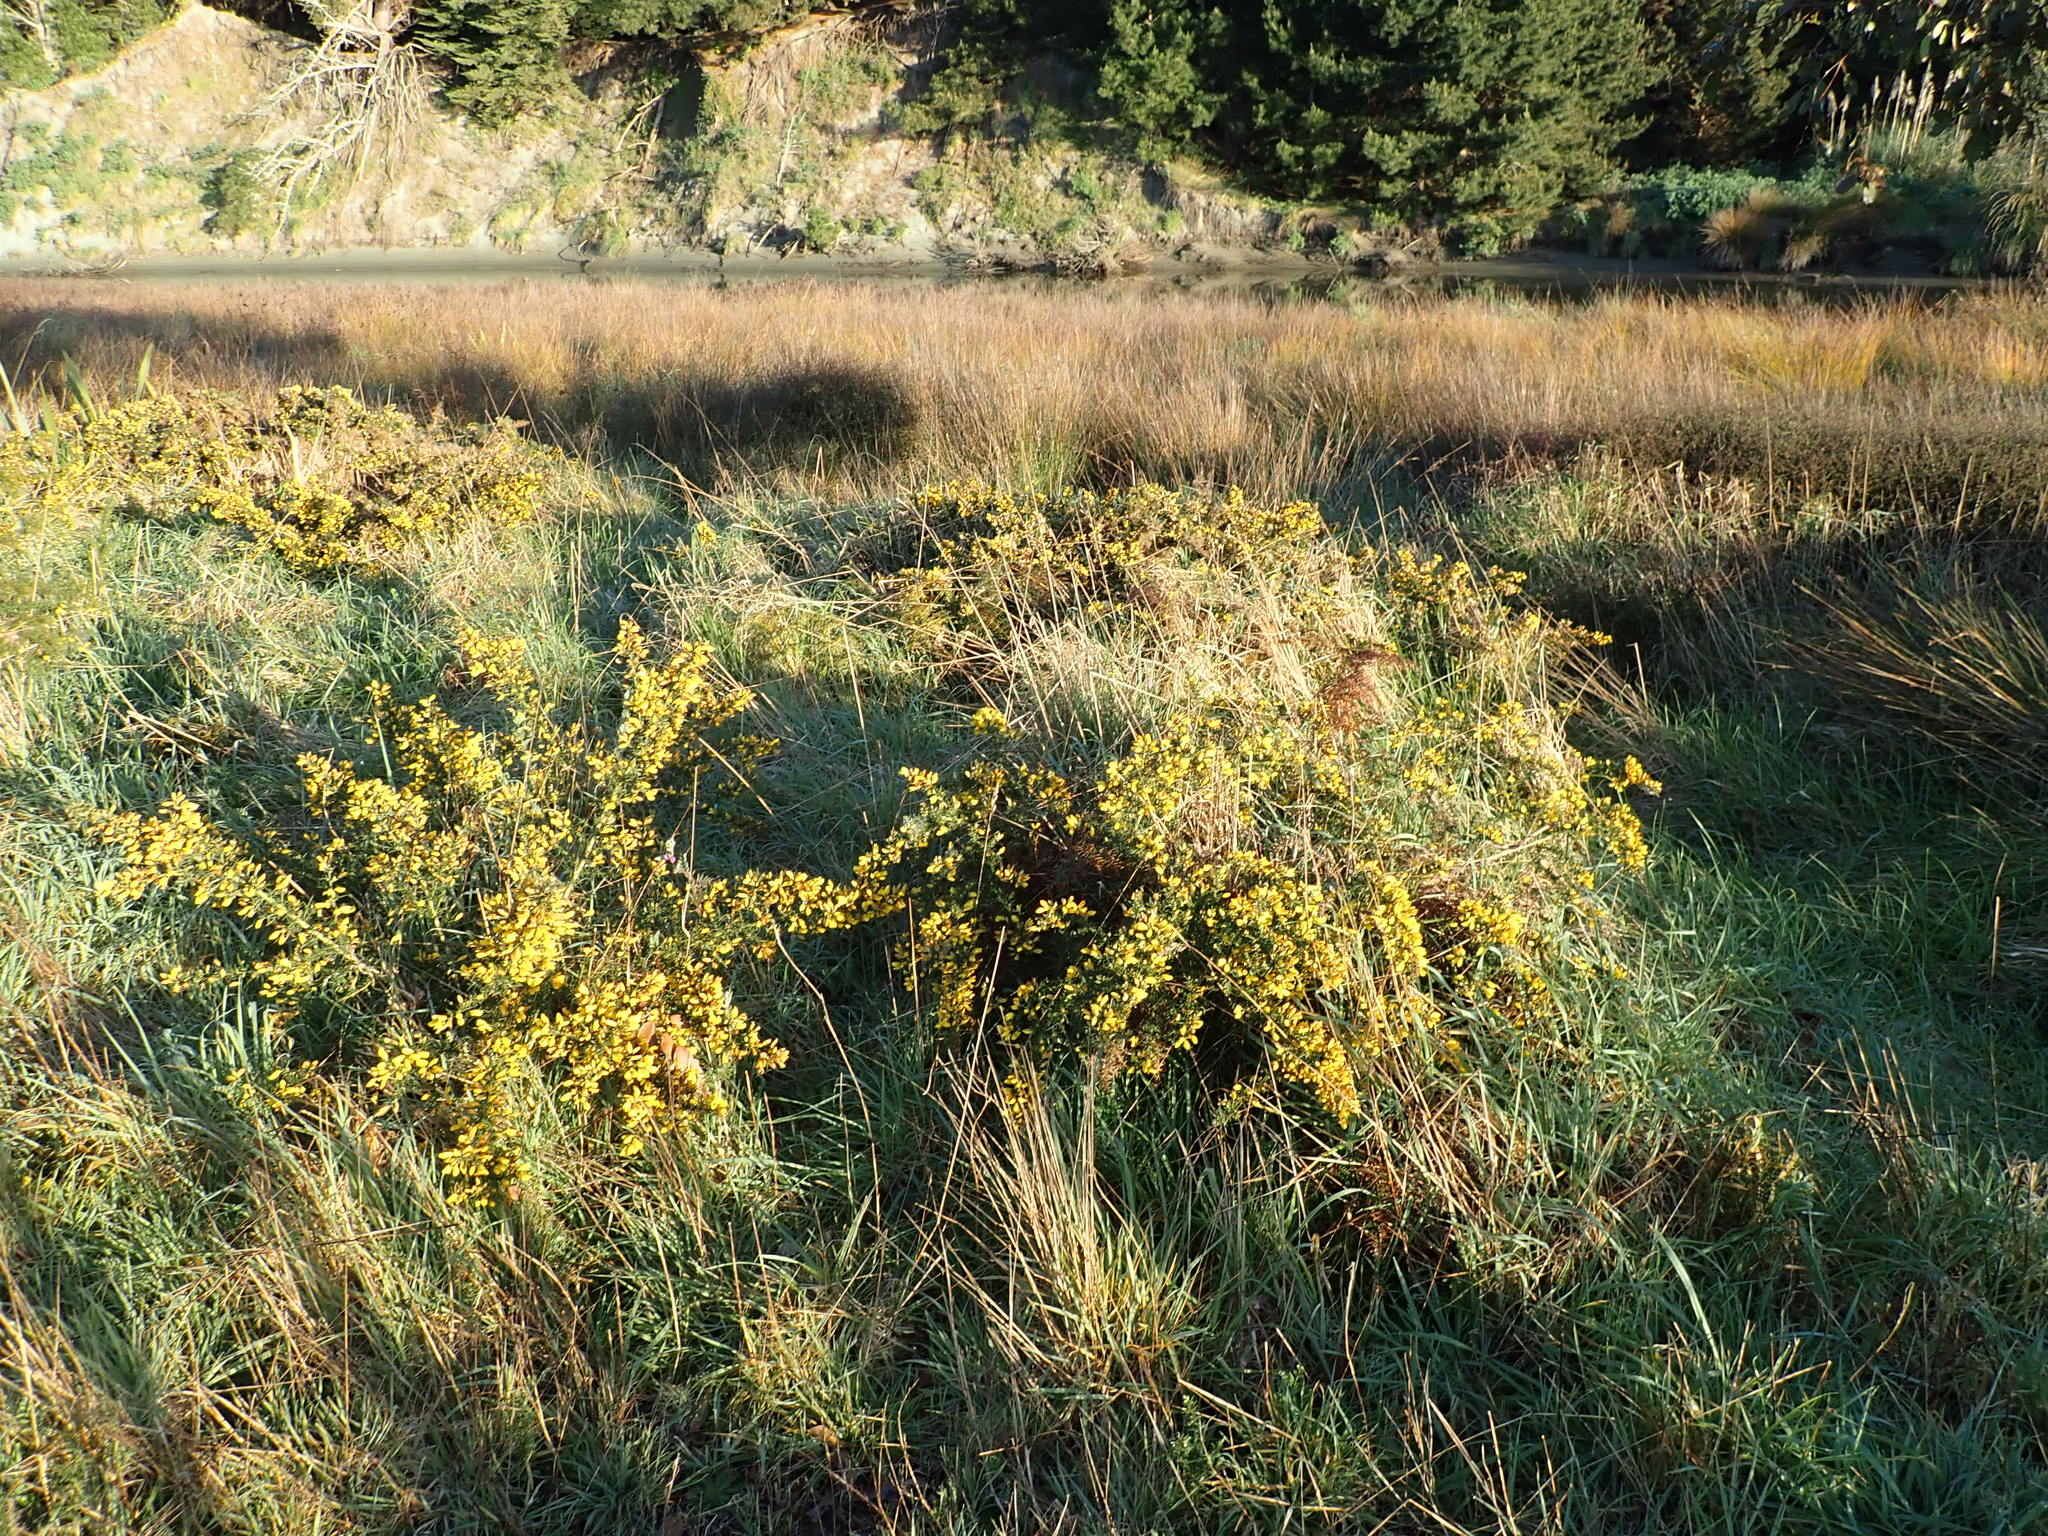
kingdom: Plantae
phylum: Tracheophyta
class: Magnoliopsida
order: Fabales
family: Fabaceae
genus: Ulex
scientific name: Ulex europaeus
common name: Common gorse
